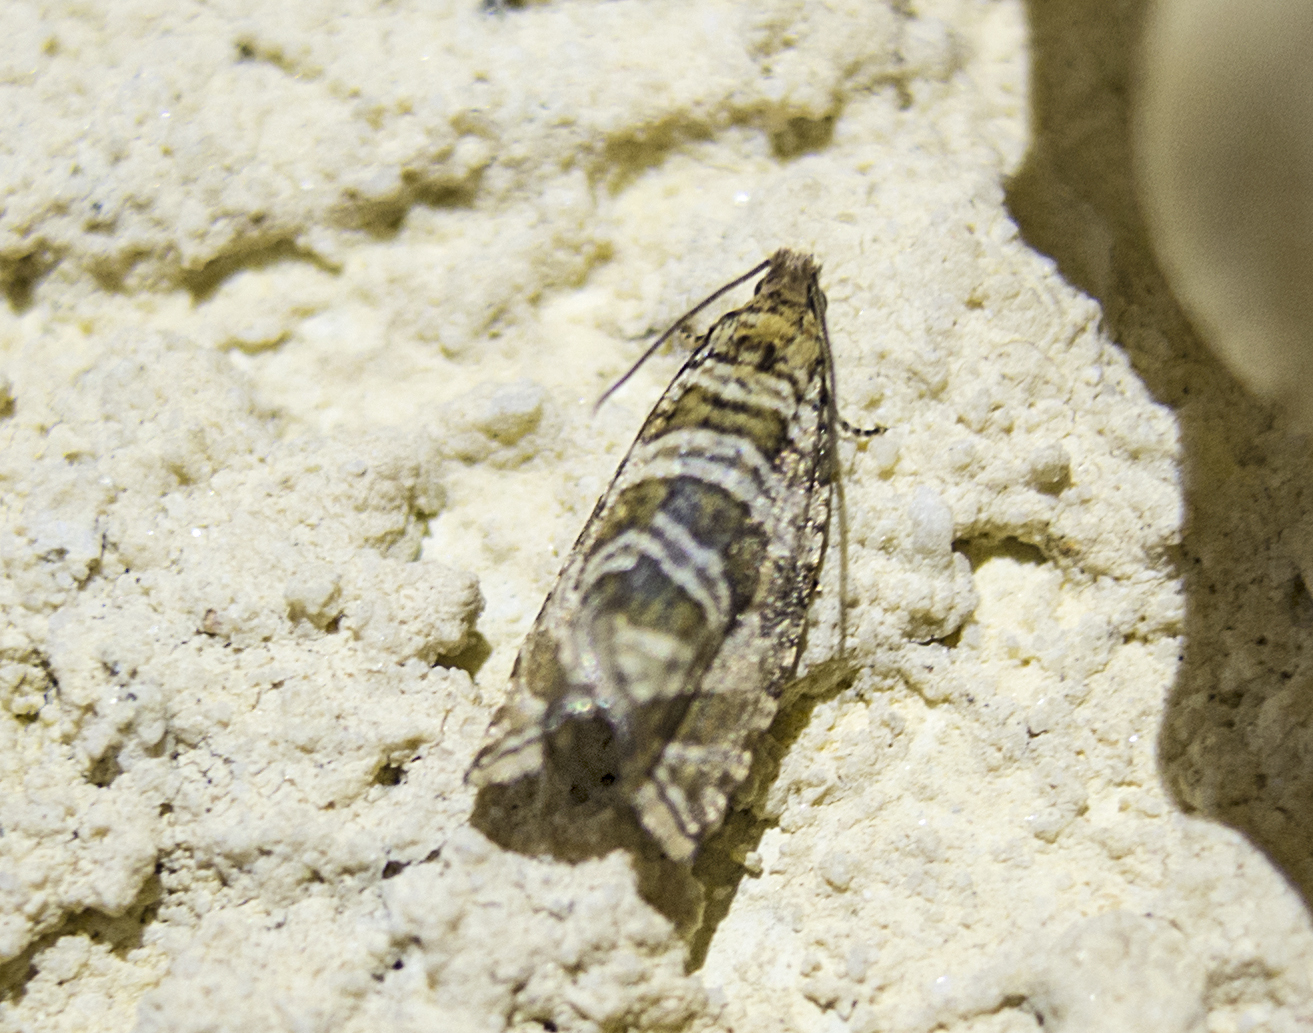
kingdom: Animalia
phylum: Arthropoda
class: Insecta
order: Lepidoptera
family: Tortricidae
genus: Syricoris
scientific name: Syricoris rivulana
